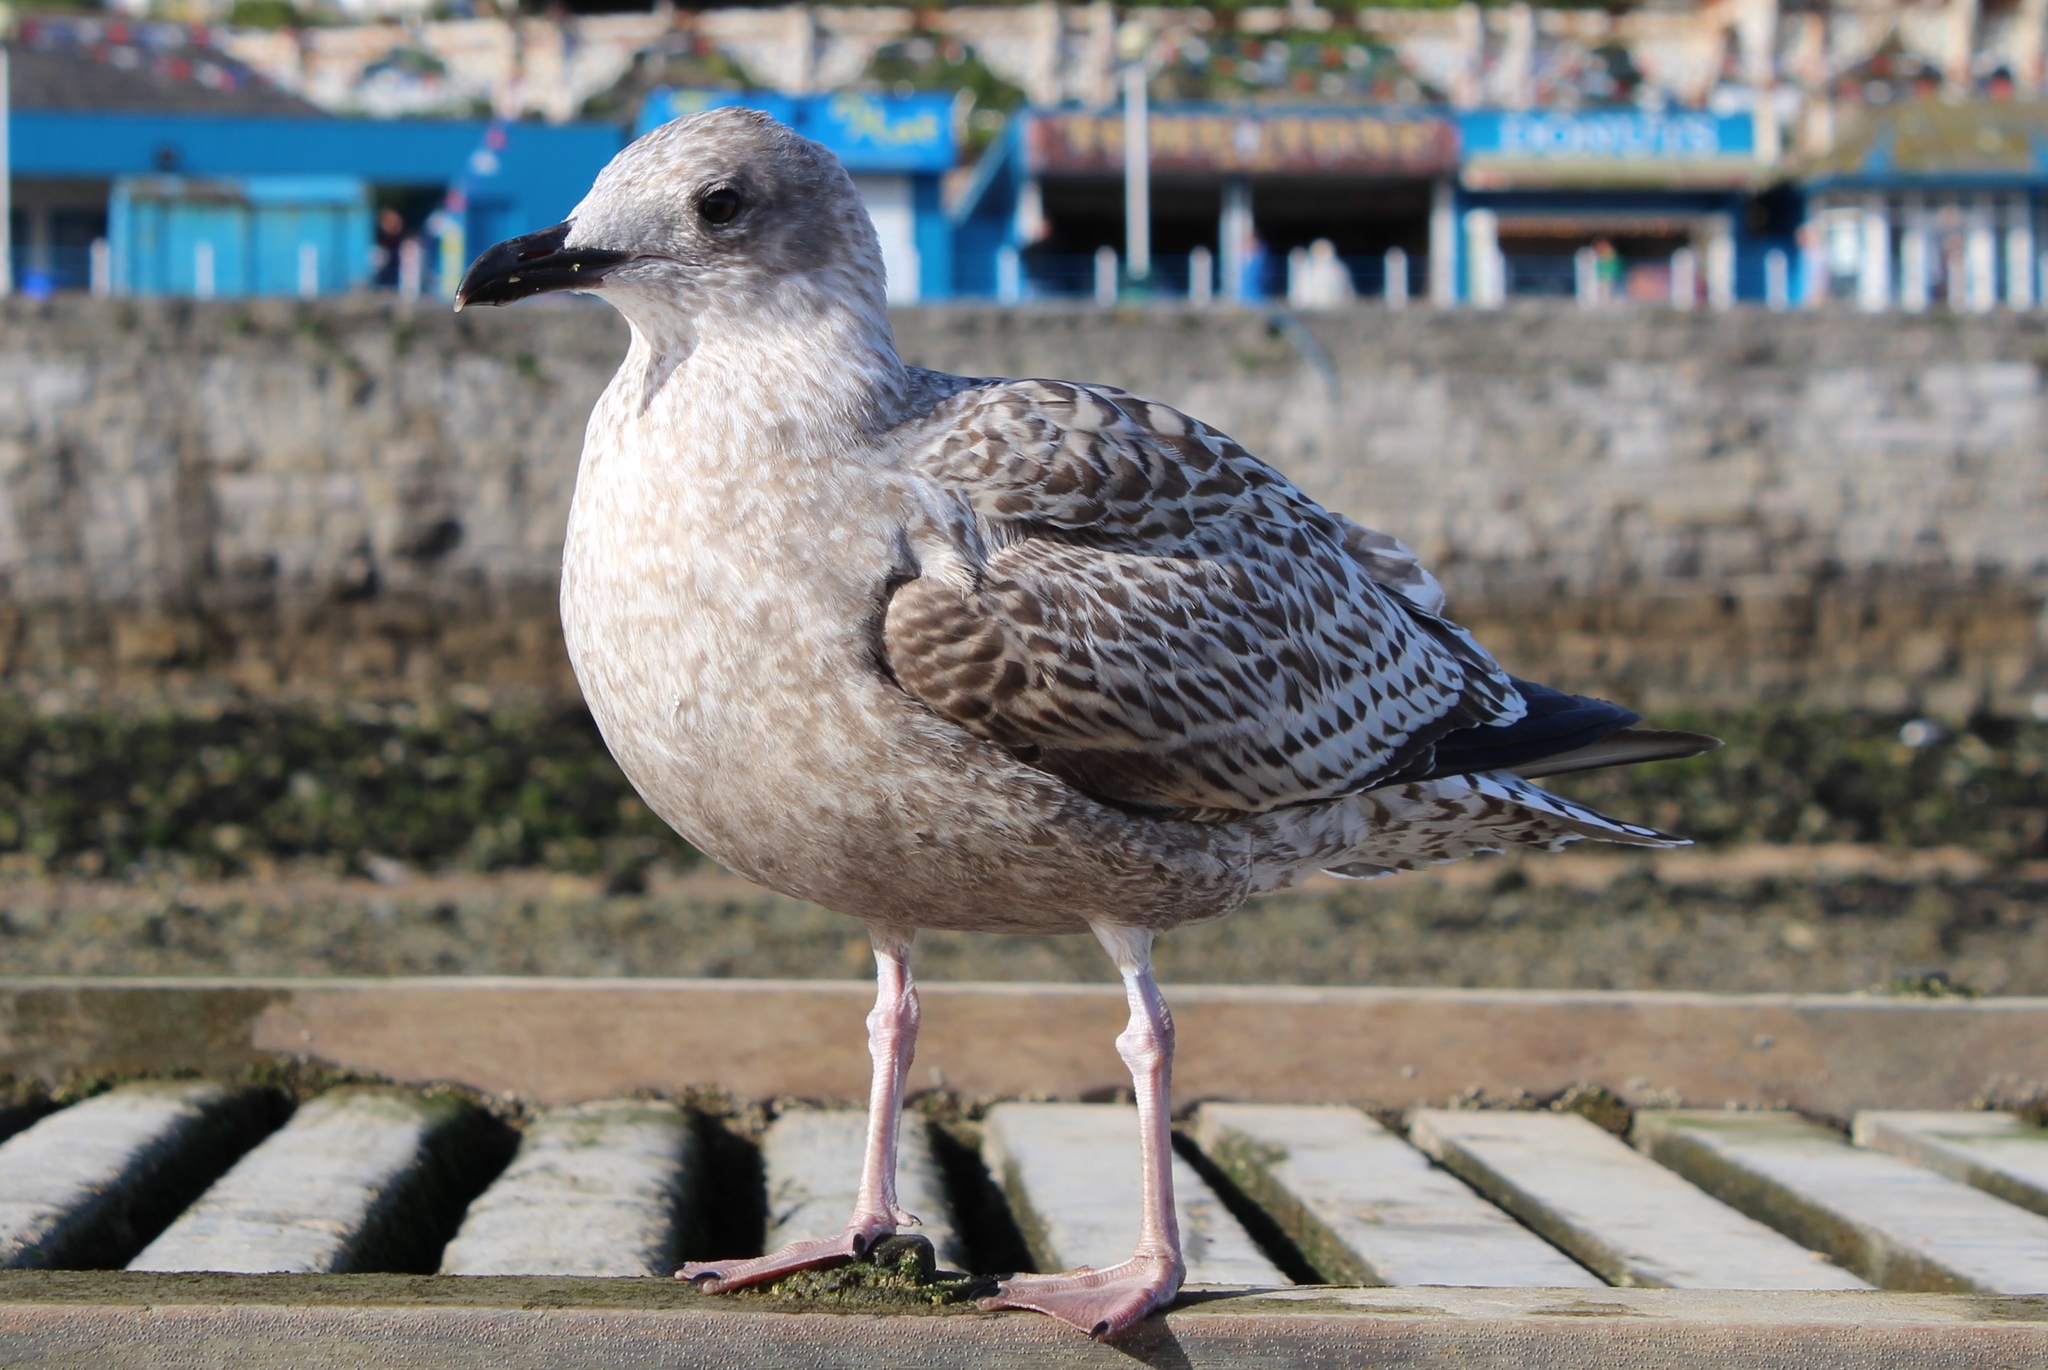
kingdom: Animalia
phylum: Chordata
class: Aves
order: Charadriiformes
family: Laridae
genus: Larus
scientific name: Larus argentatus
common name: Herring gull
